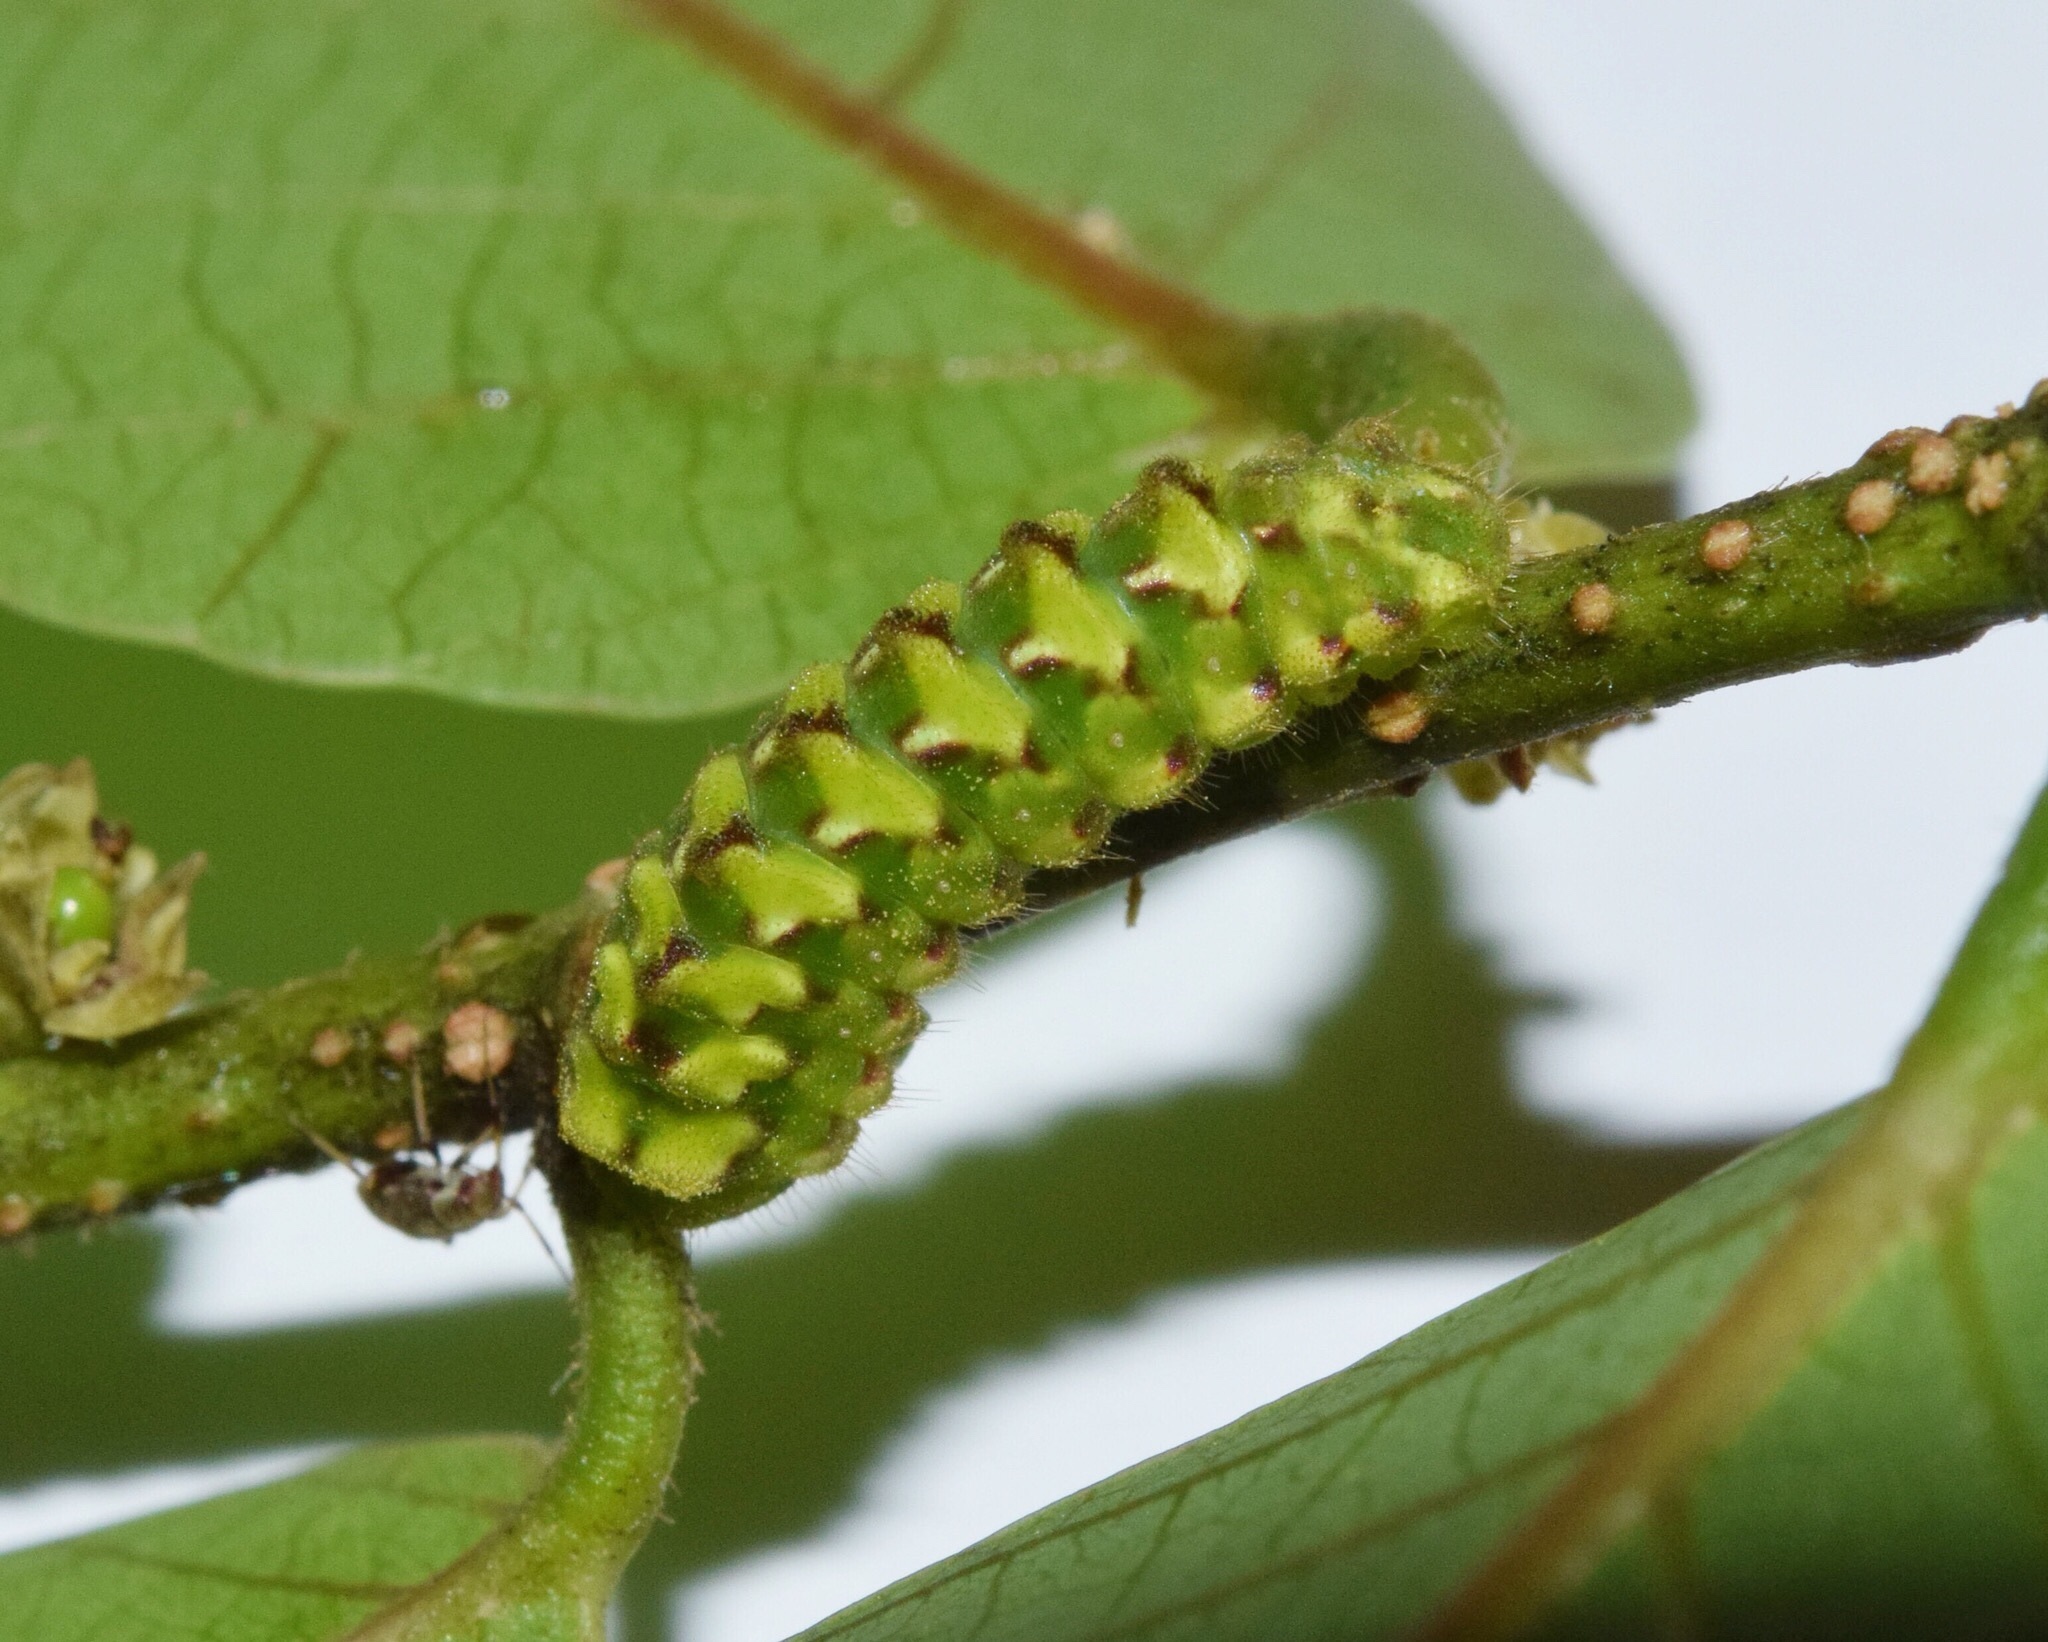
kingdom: Animalia
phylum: Arthropoda
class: Insecta
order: Lepidoptera
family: Lycaenidae
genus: Anthene
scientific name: Anthene definita
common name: Common ciliate blue
